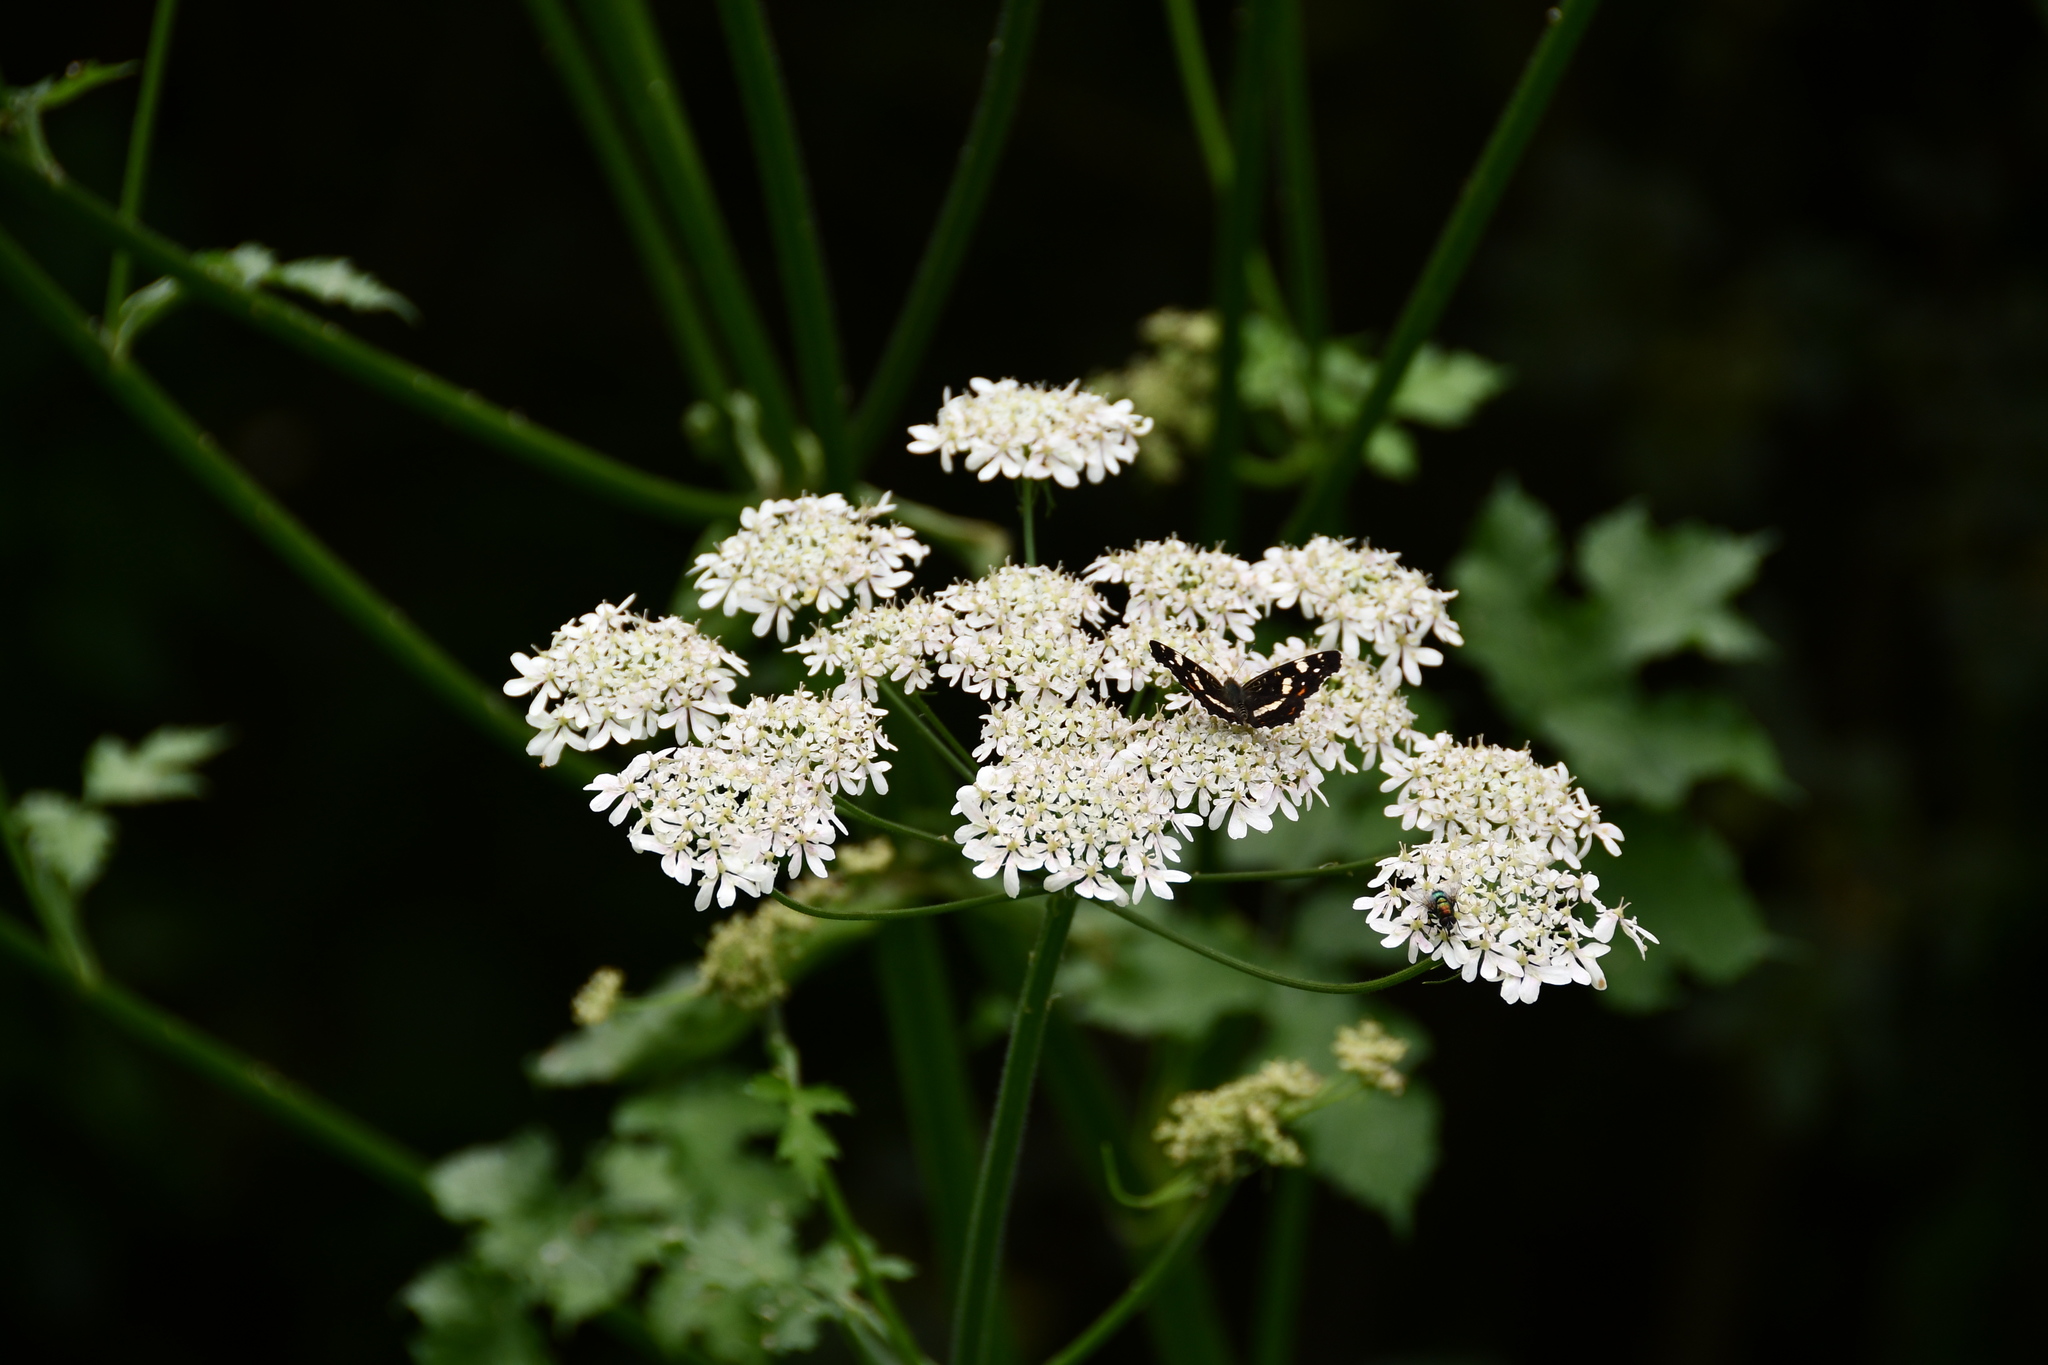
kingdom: Animalia
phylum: Arthropoda
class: Insecta
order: Lepidoptera
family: Nymphalidae
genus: Araschnia
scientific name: Araschnia levana
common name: Map butterfly
